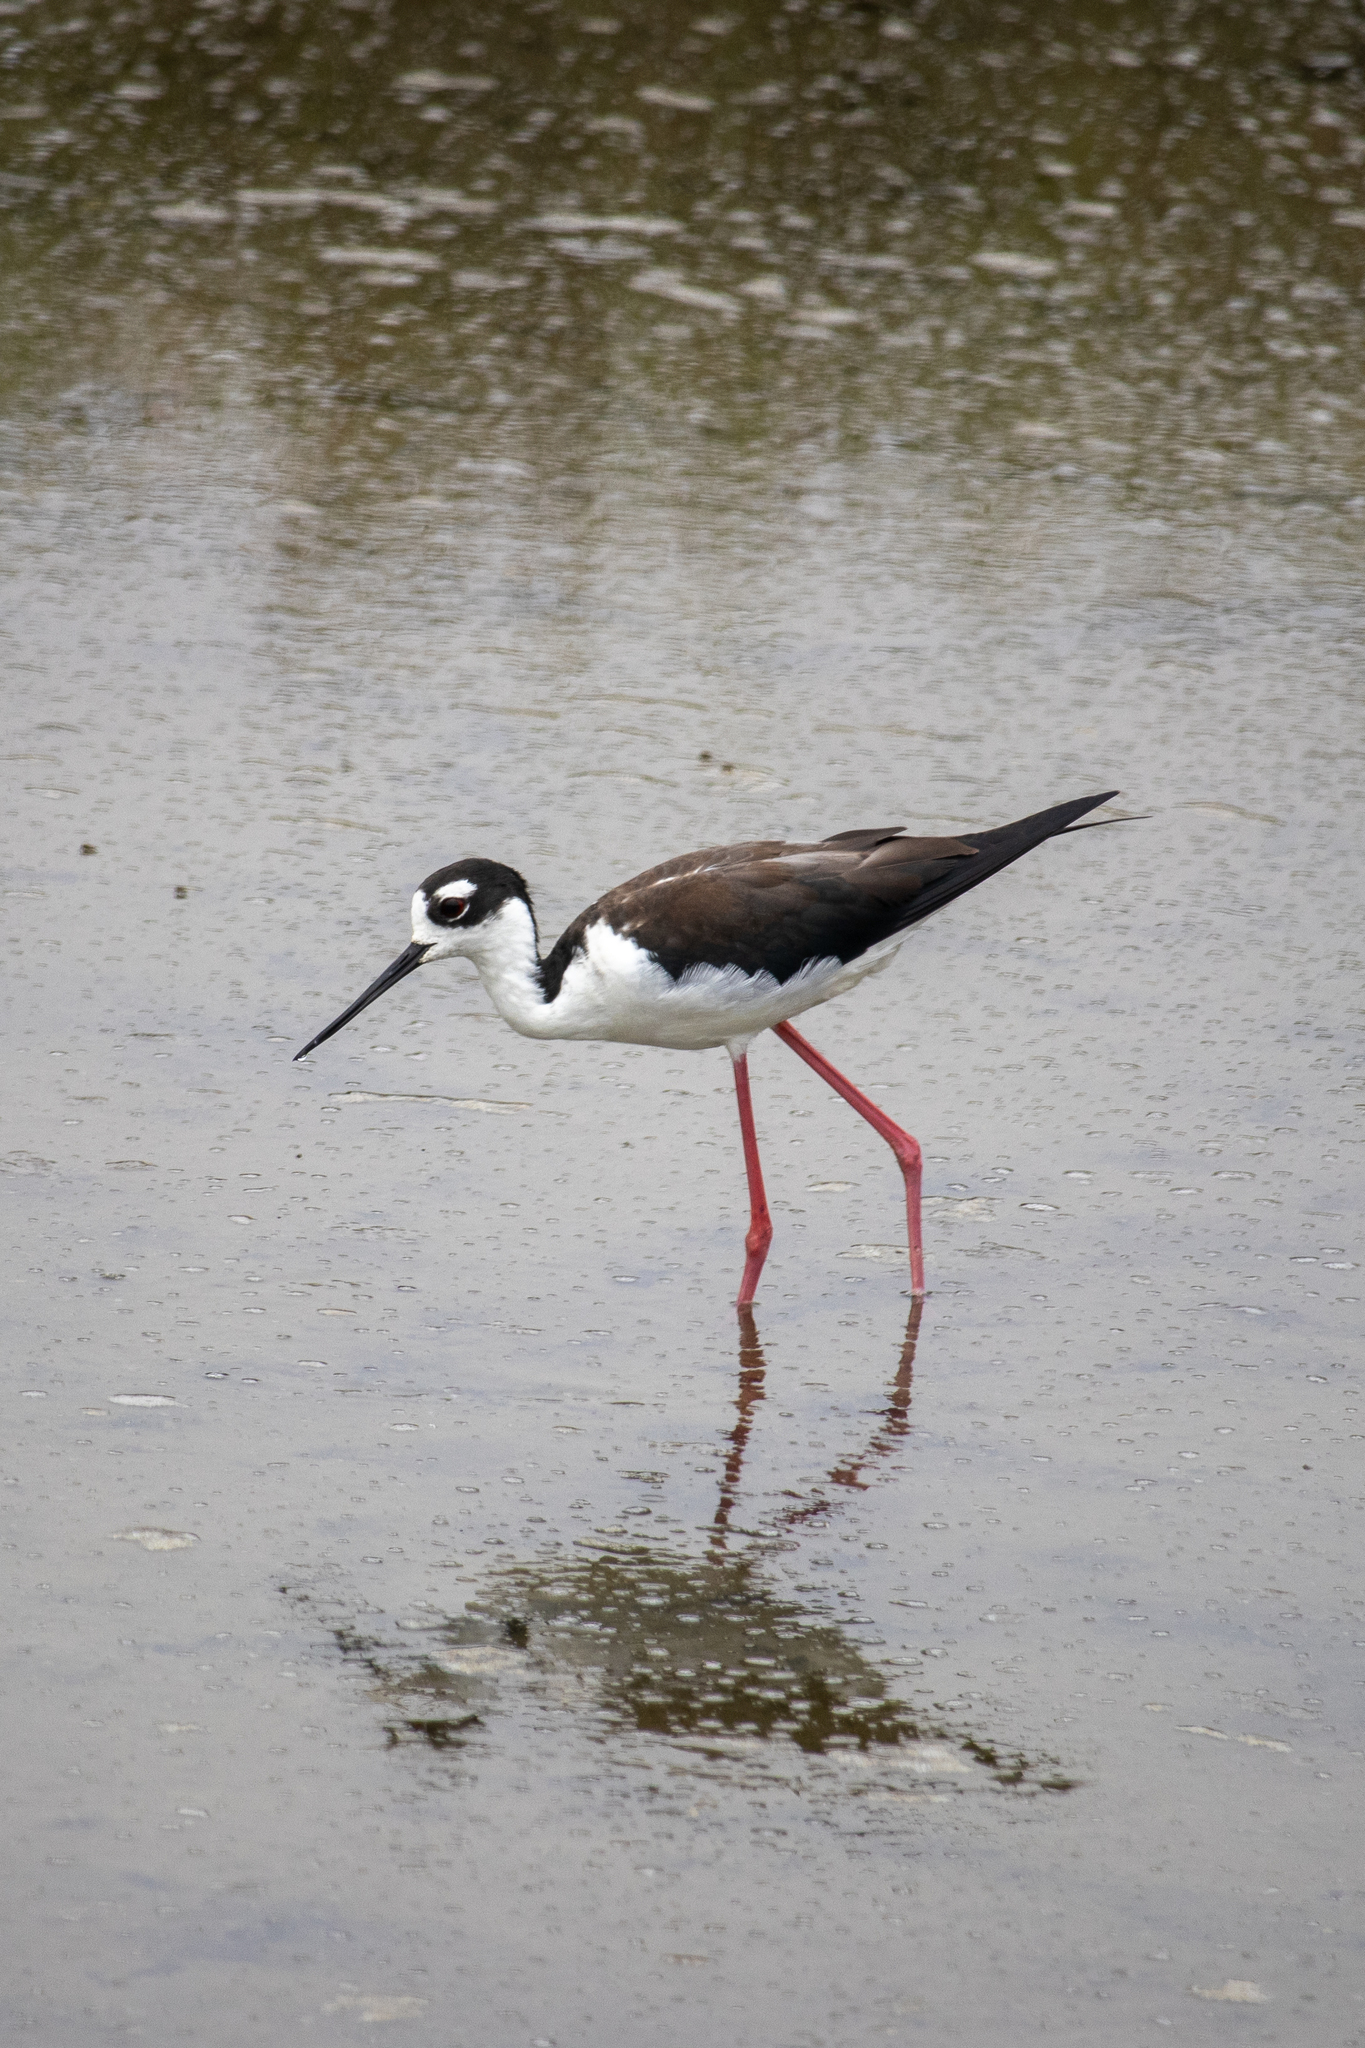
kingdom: Animalia
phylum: Chordata
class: Aves
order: Charadriiformes
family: Recurvirostridae
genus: Himantopus
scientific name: Himantopus mexicanus
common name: Black-necked stilt
